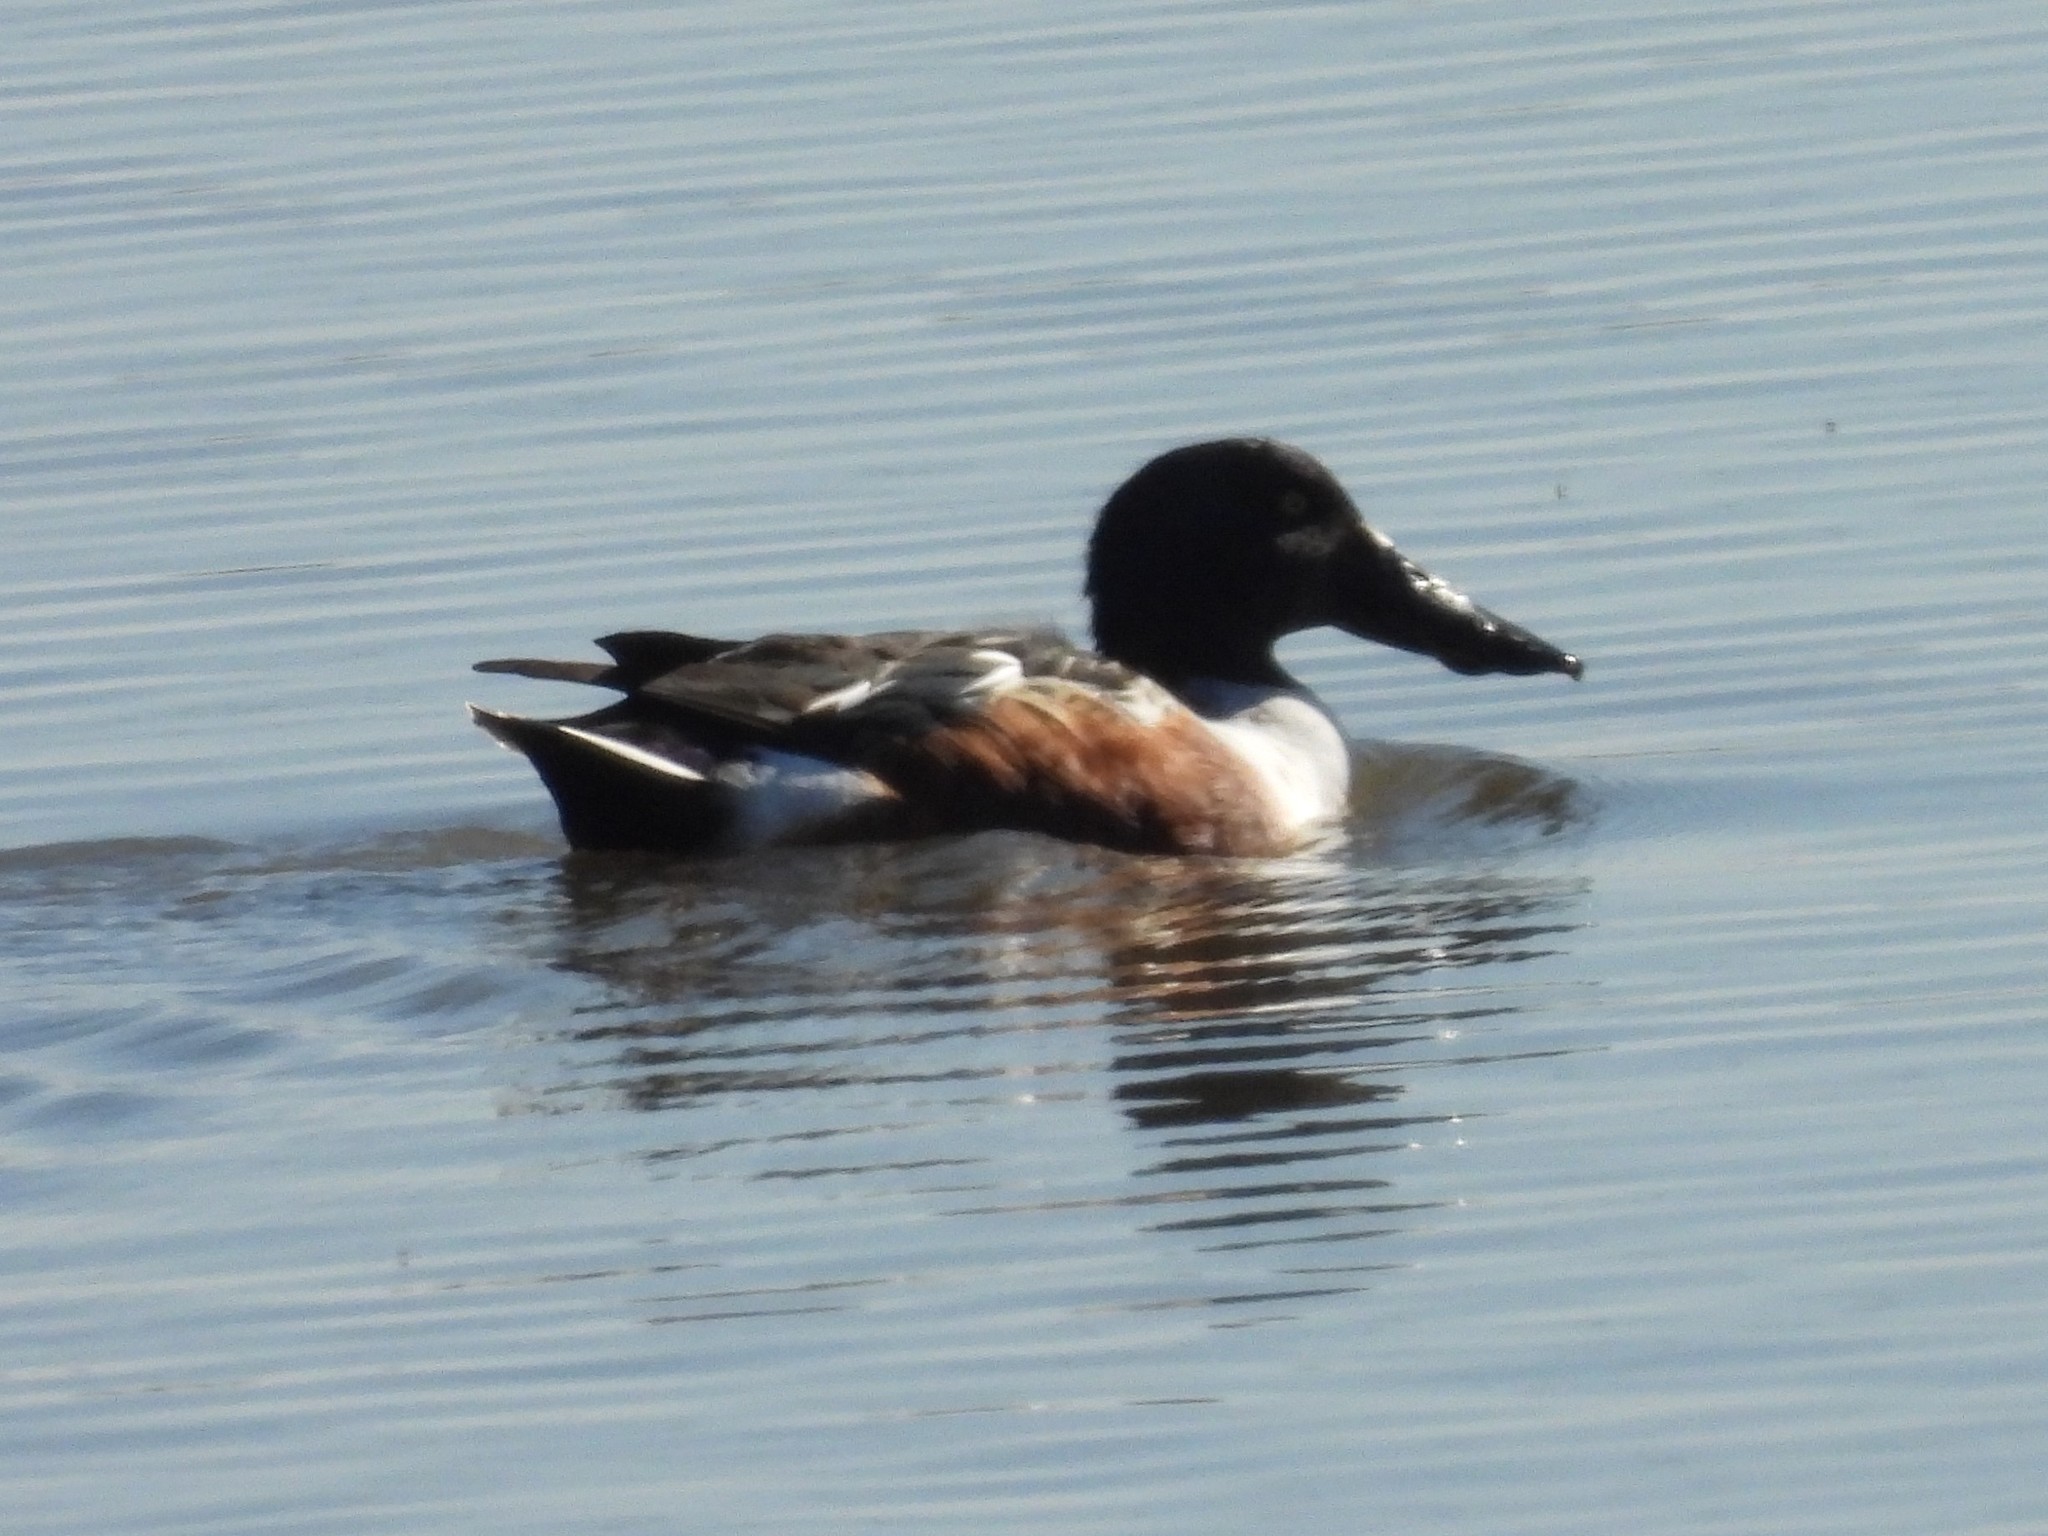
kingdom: Animalia
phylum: Chordata
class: Aves
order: Anseriformes
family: Anatidae
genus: Spatula
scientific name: Spatula clypeata
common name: Northern shoveler
